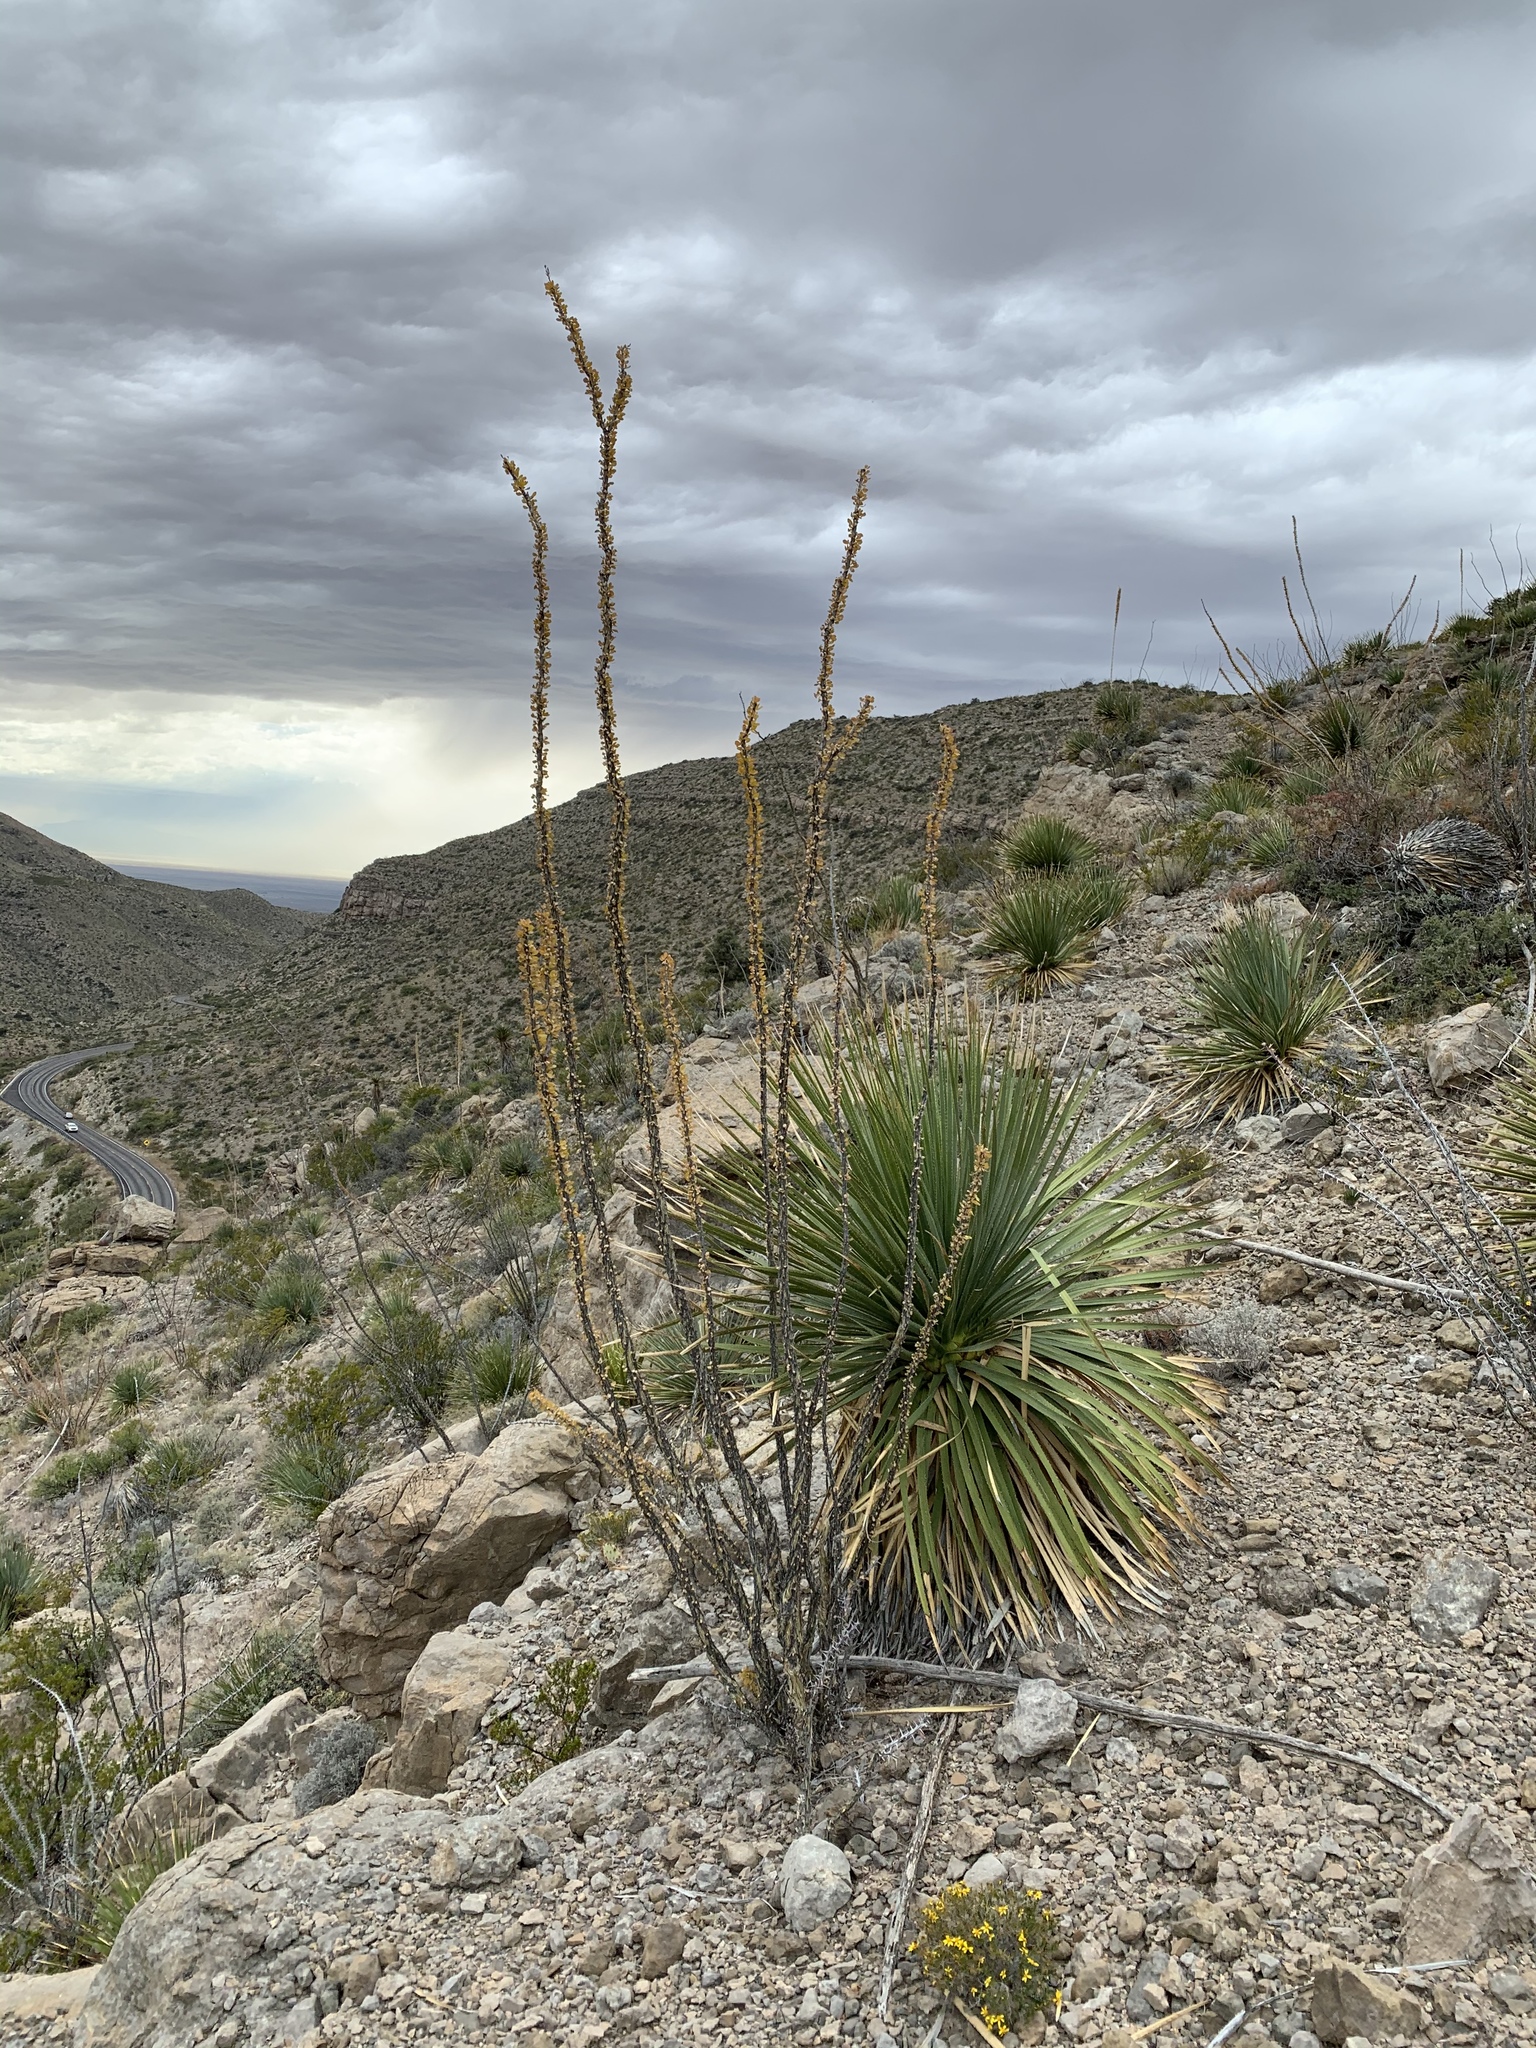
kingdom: Plantae
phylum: Tracheophyta
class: Magnoliopsida
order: Ericales
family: Fouquieriaceae
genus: Fouquieria
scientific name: Fouquieria splendens
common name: Vine-cactus
